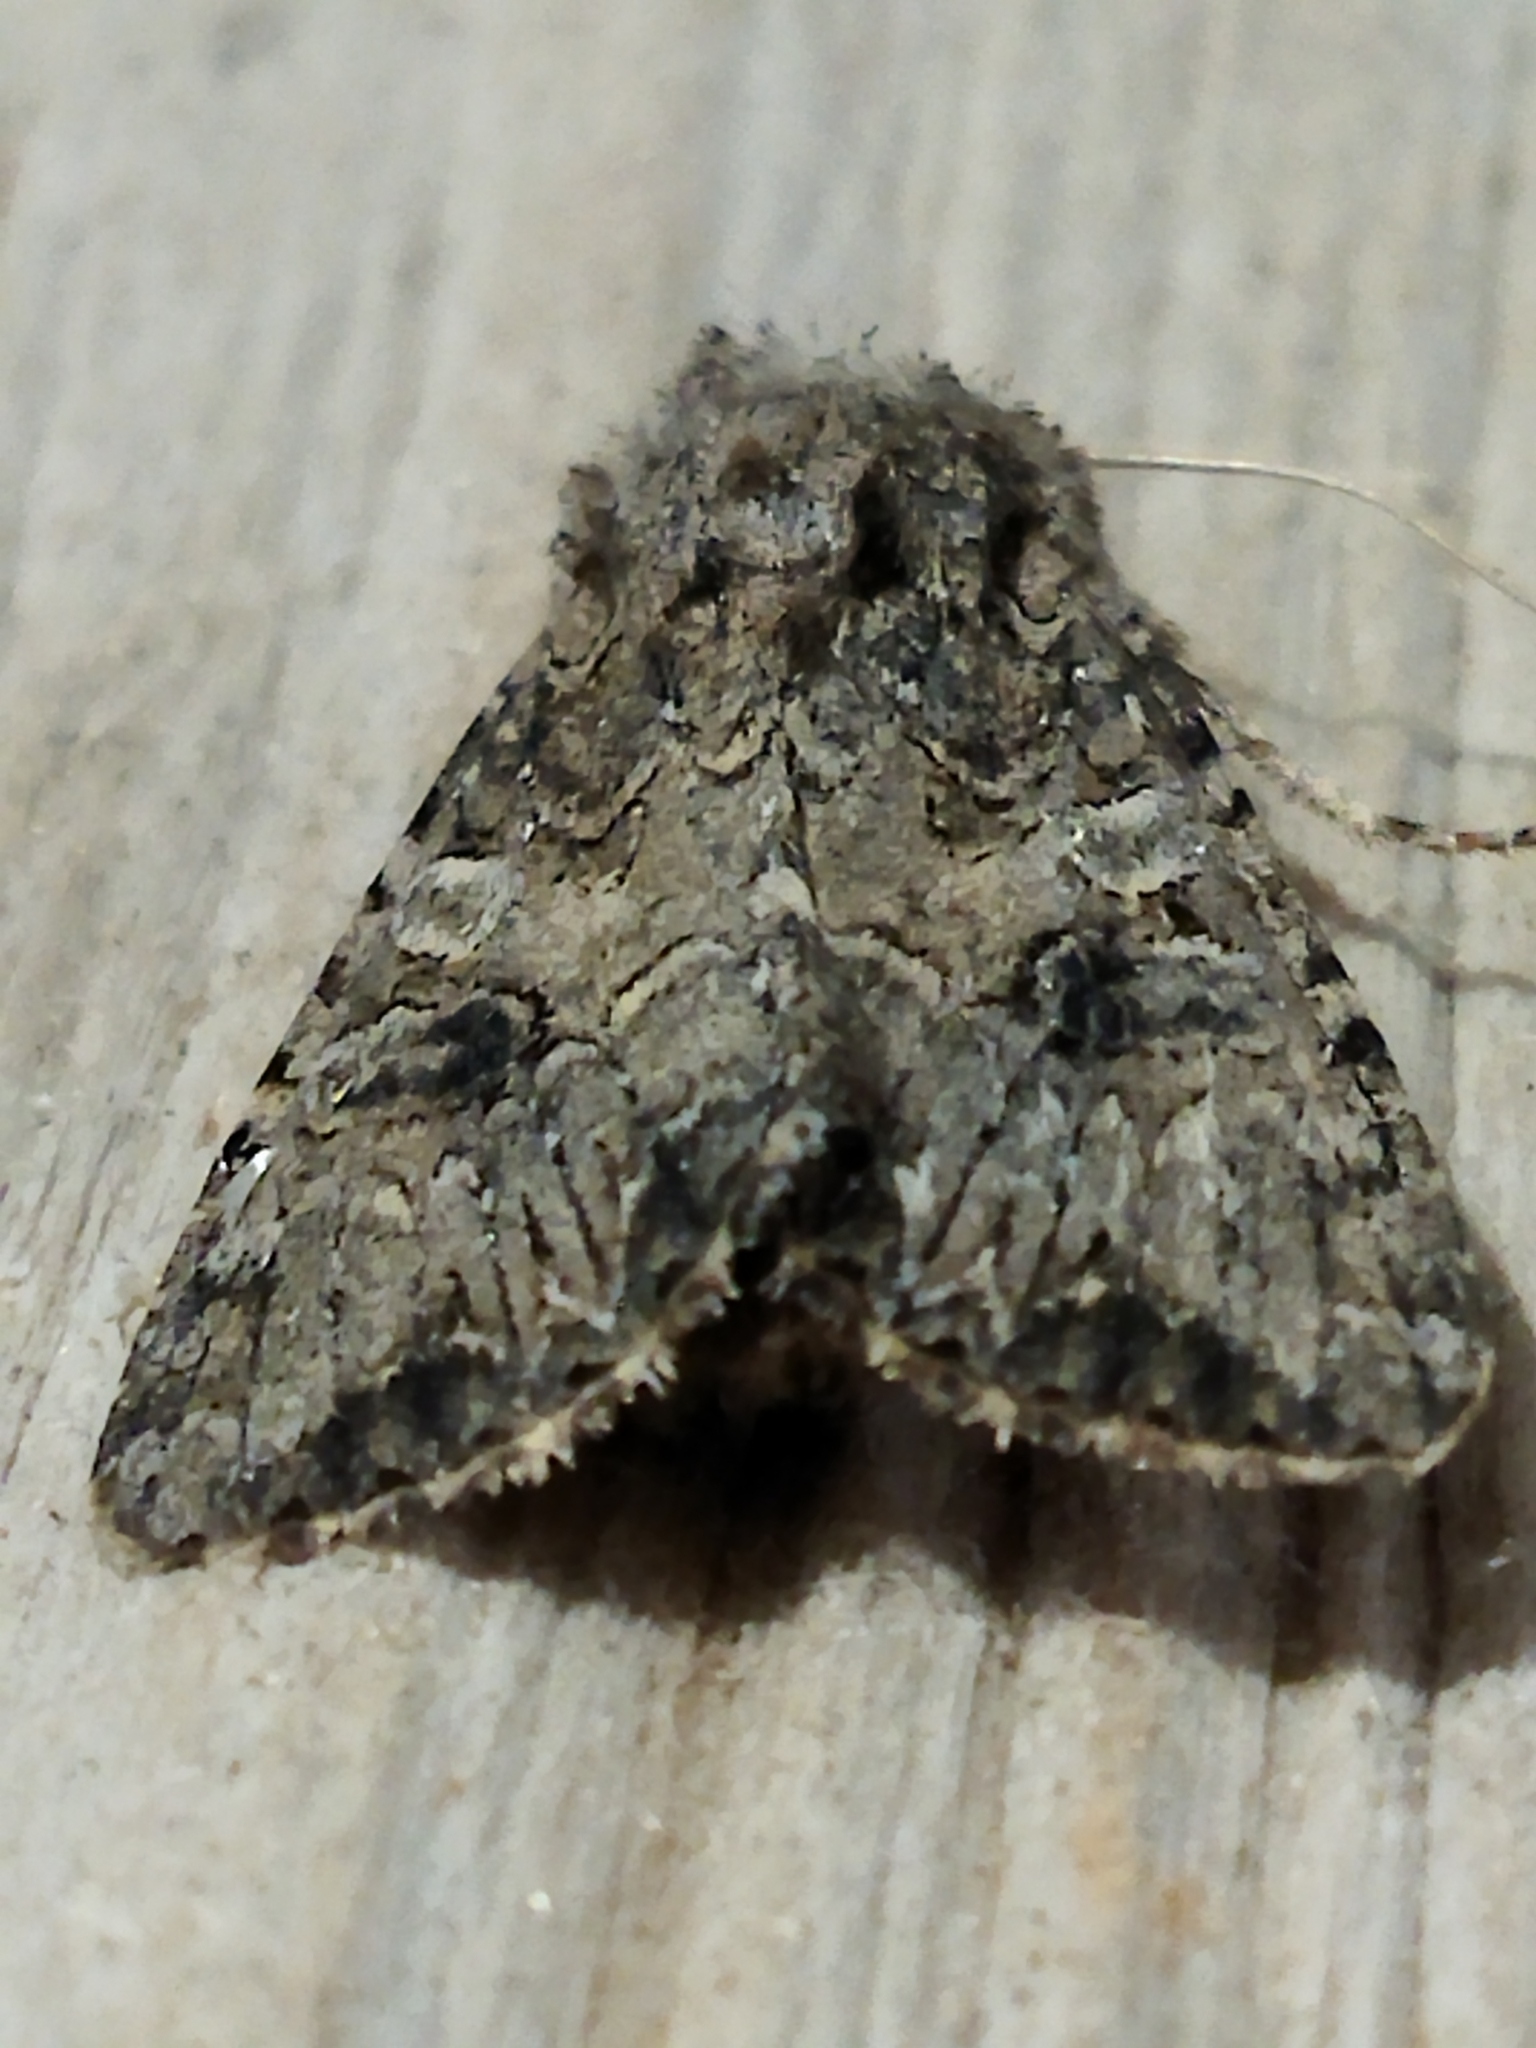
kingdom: Animalia
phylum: Arthropoda
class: Insecta
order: Lepidoptera
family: Noctuidae
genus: Anarta
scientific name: Anarta trifolii
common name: Clover cutworm moth
